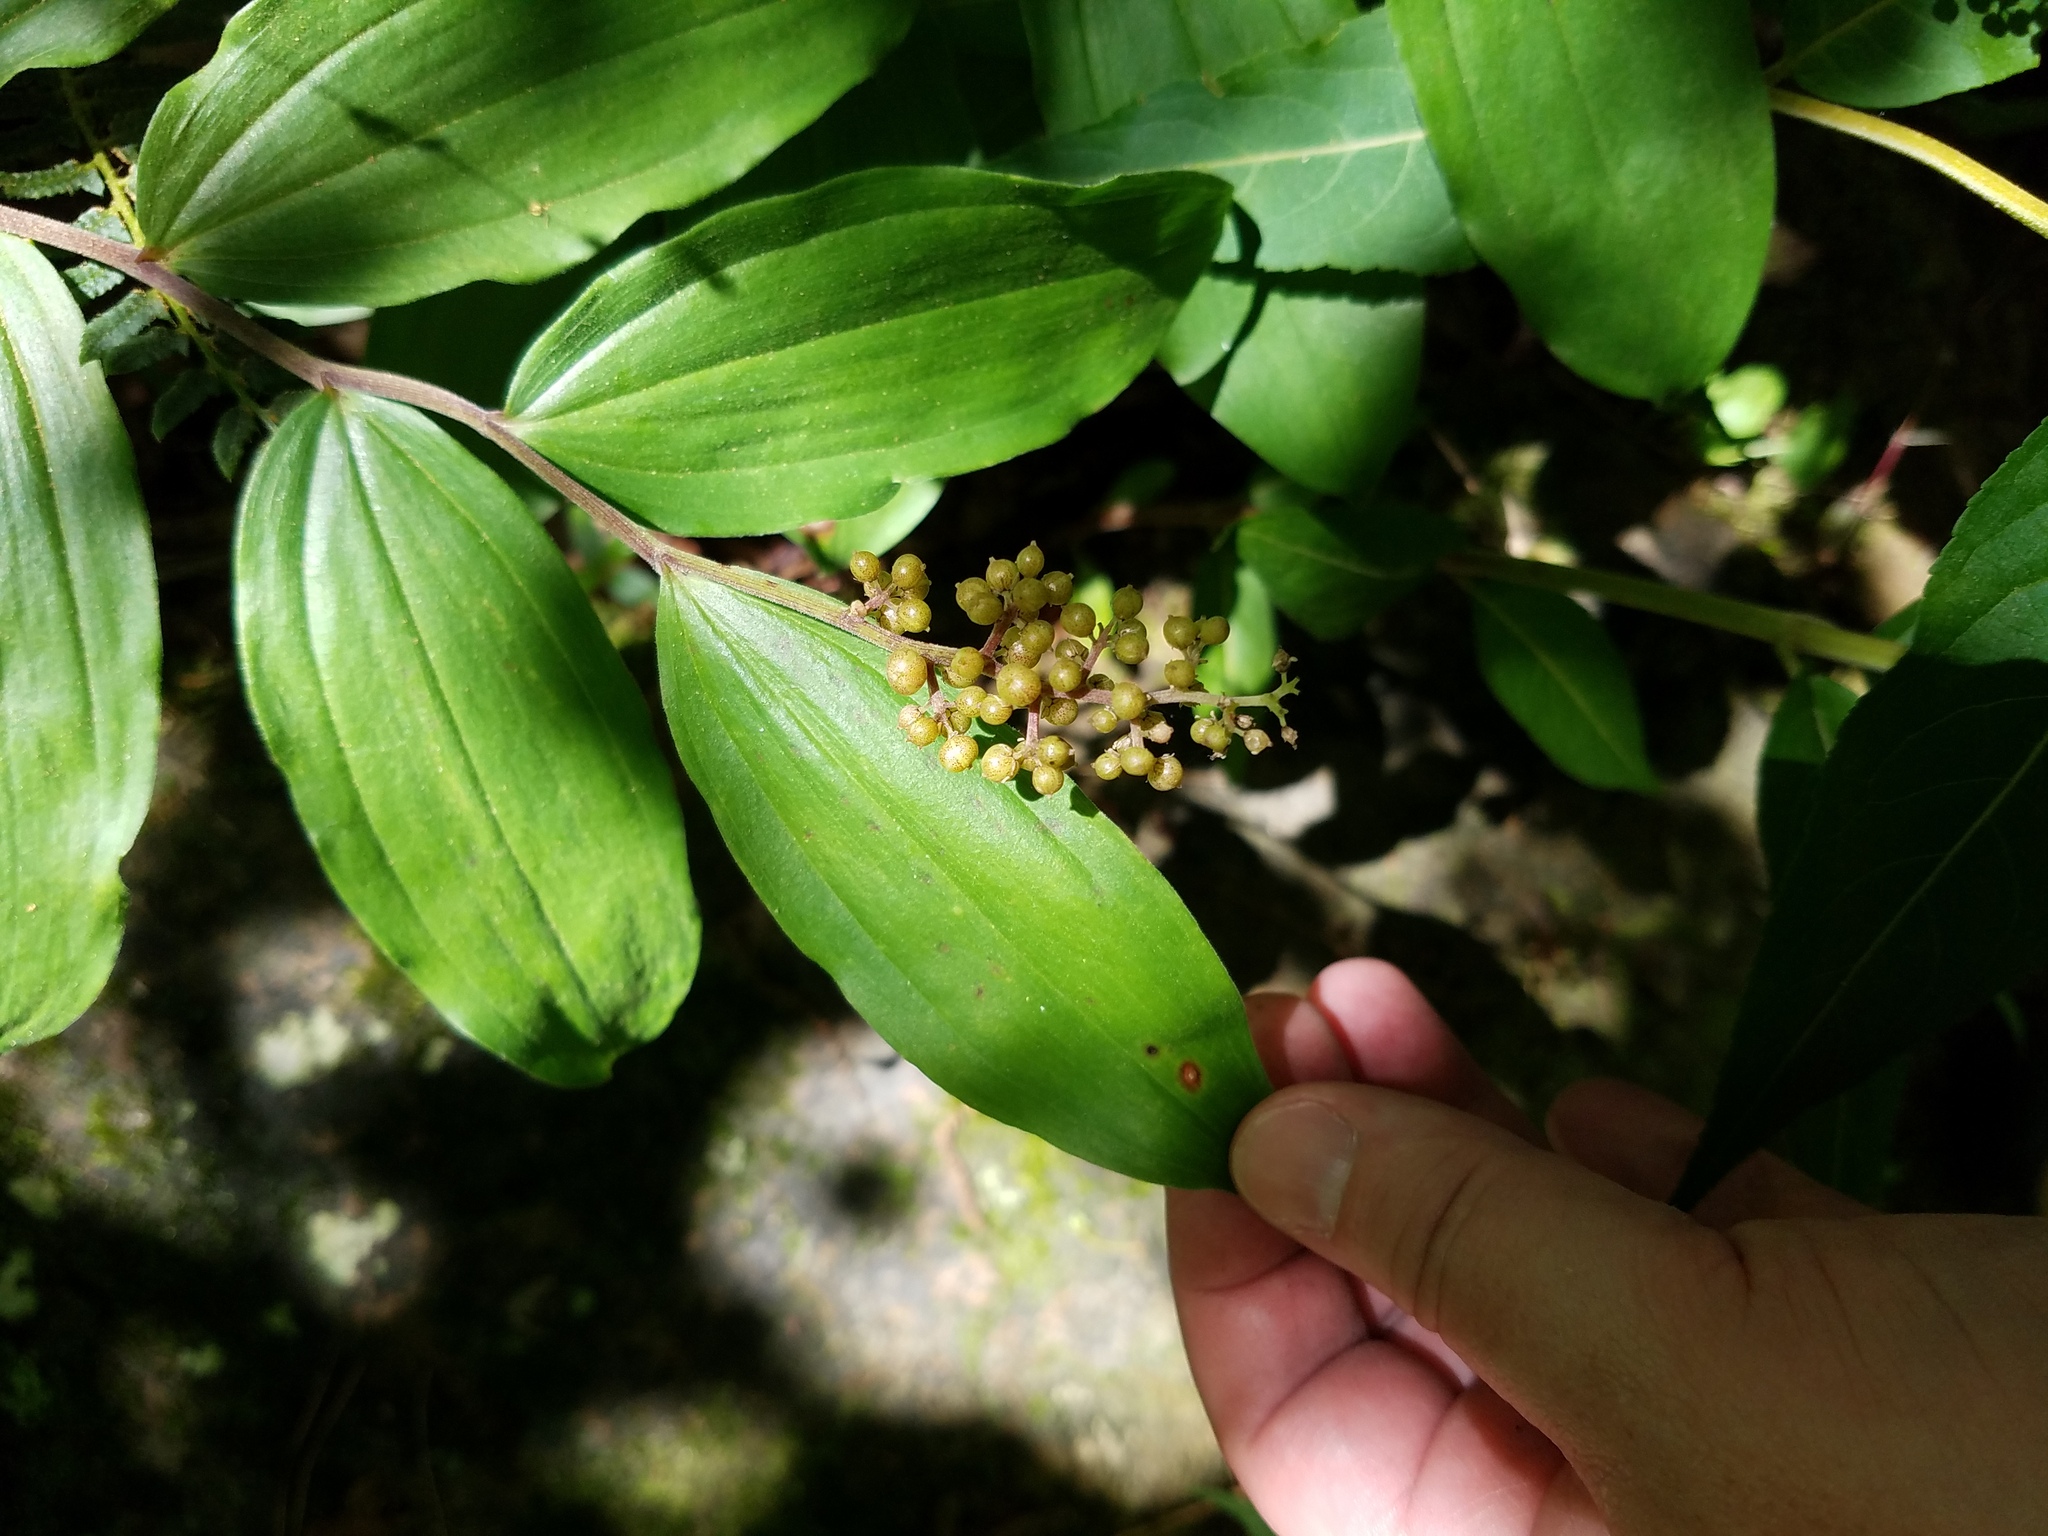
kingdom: Plantae
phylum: Tracheophyta
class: Liliopsida
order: Asparagales
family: Asparagaceae
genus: Maianthemum
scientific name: Maianthemum racemosum
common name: False spikenard
